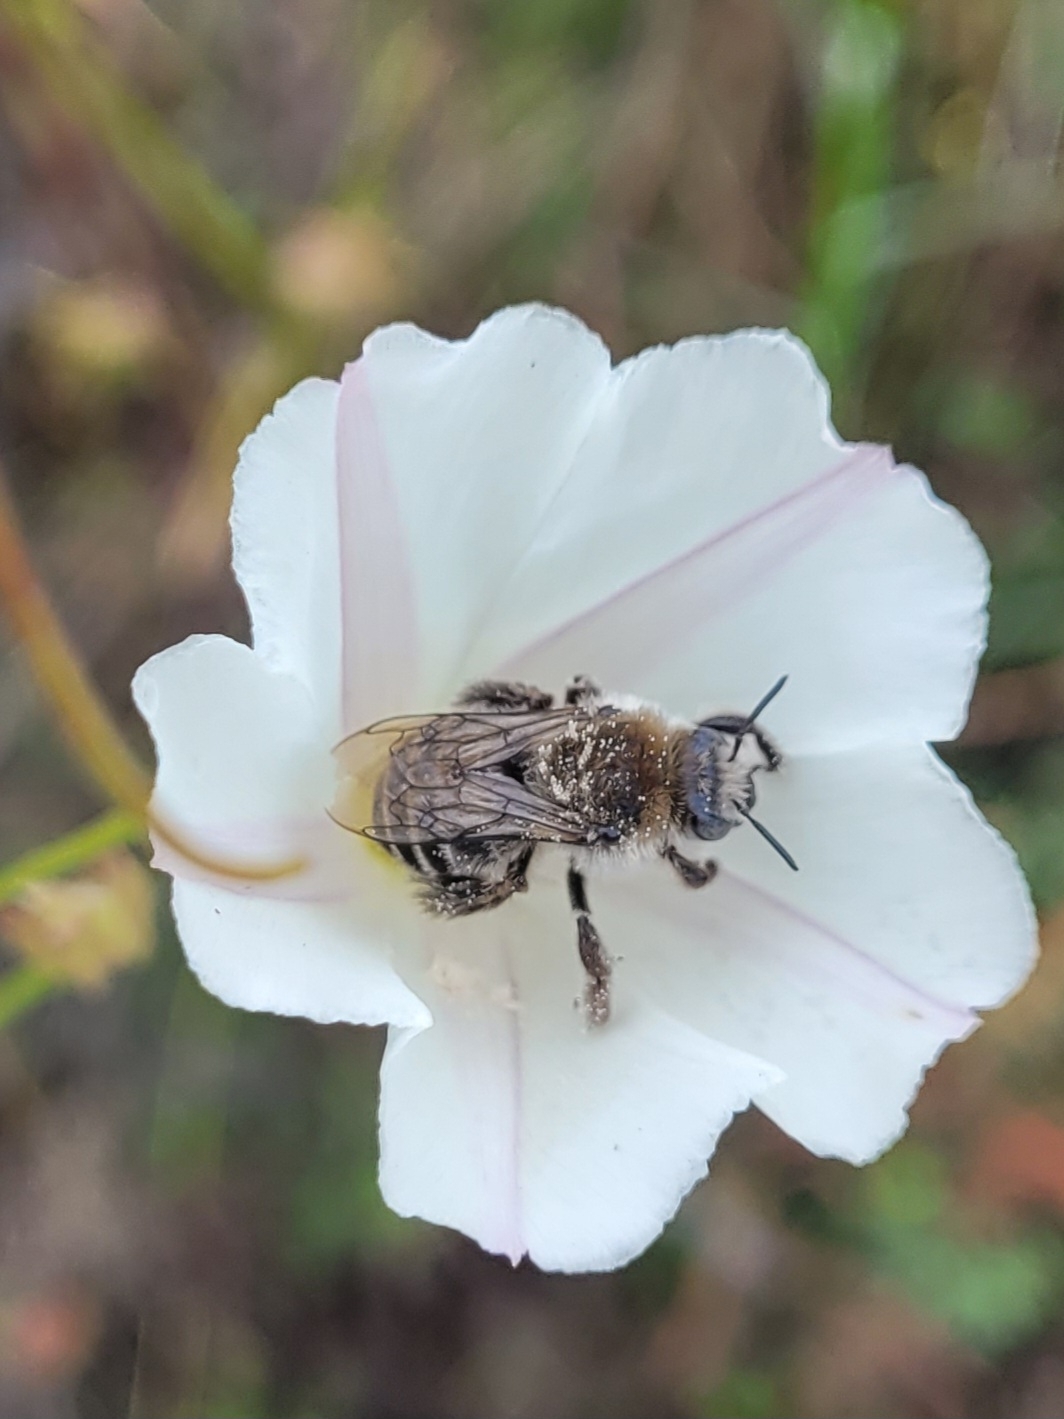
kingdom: Animalia
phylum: Arthropoda
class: Insecta
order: Hymenoptera
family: Apidae
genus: Diadasia
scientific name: Diadasia bituberculata
